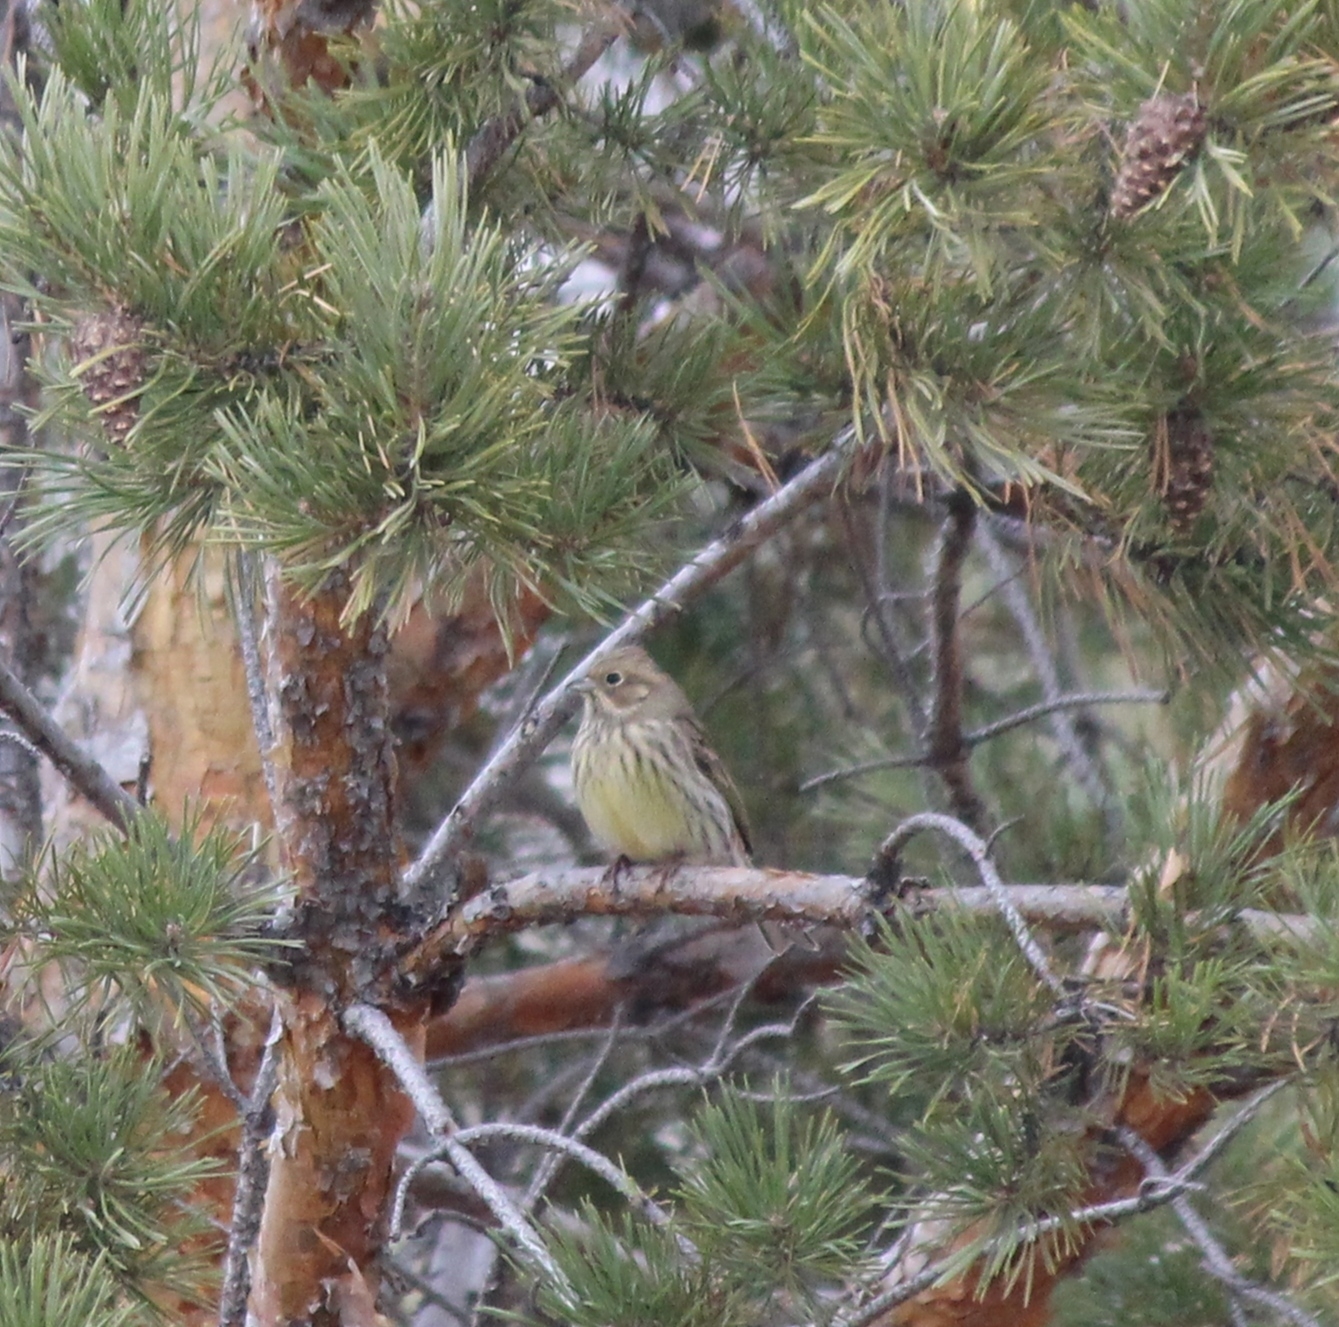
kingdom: Animalia
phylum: Chordata
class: Aves
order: Passeriformes
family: Emberizidae
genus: Emberiza
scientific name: Emberiza citrinella
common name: Yellowhammer
